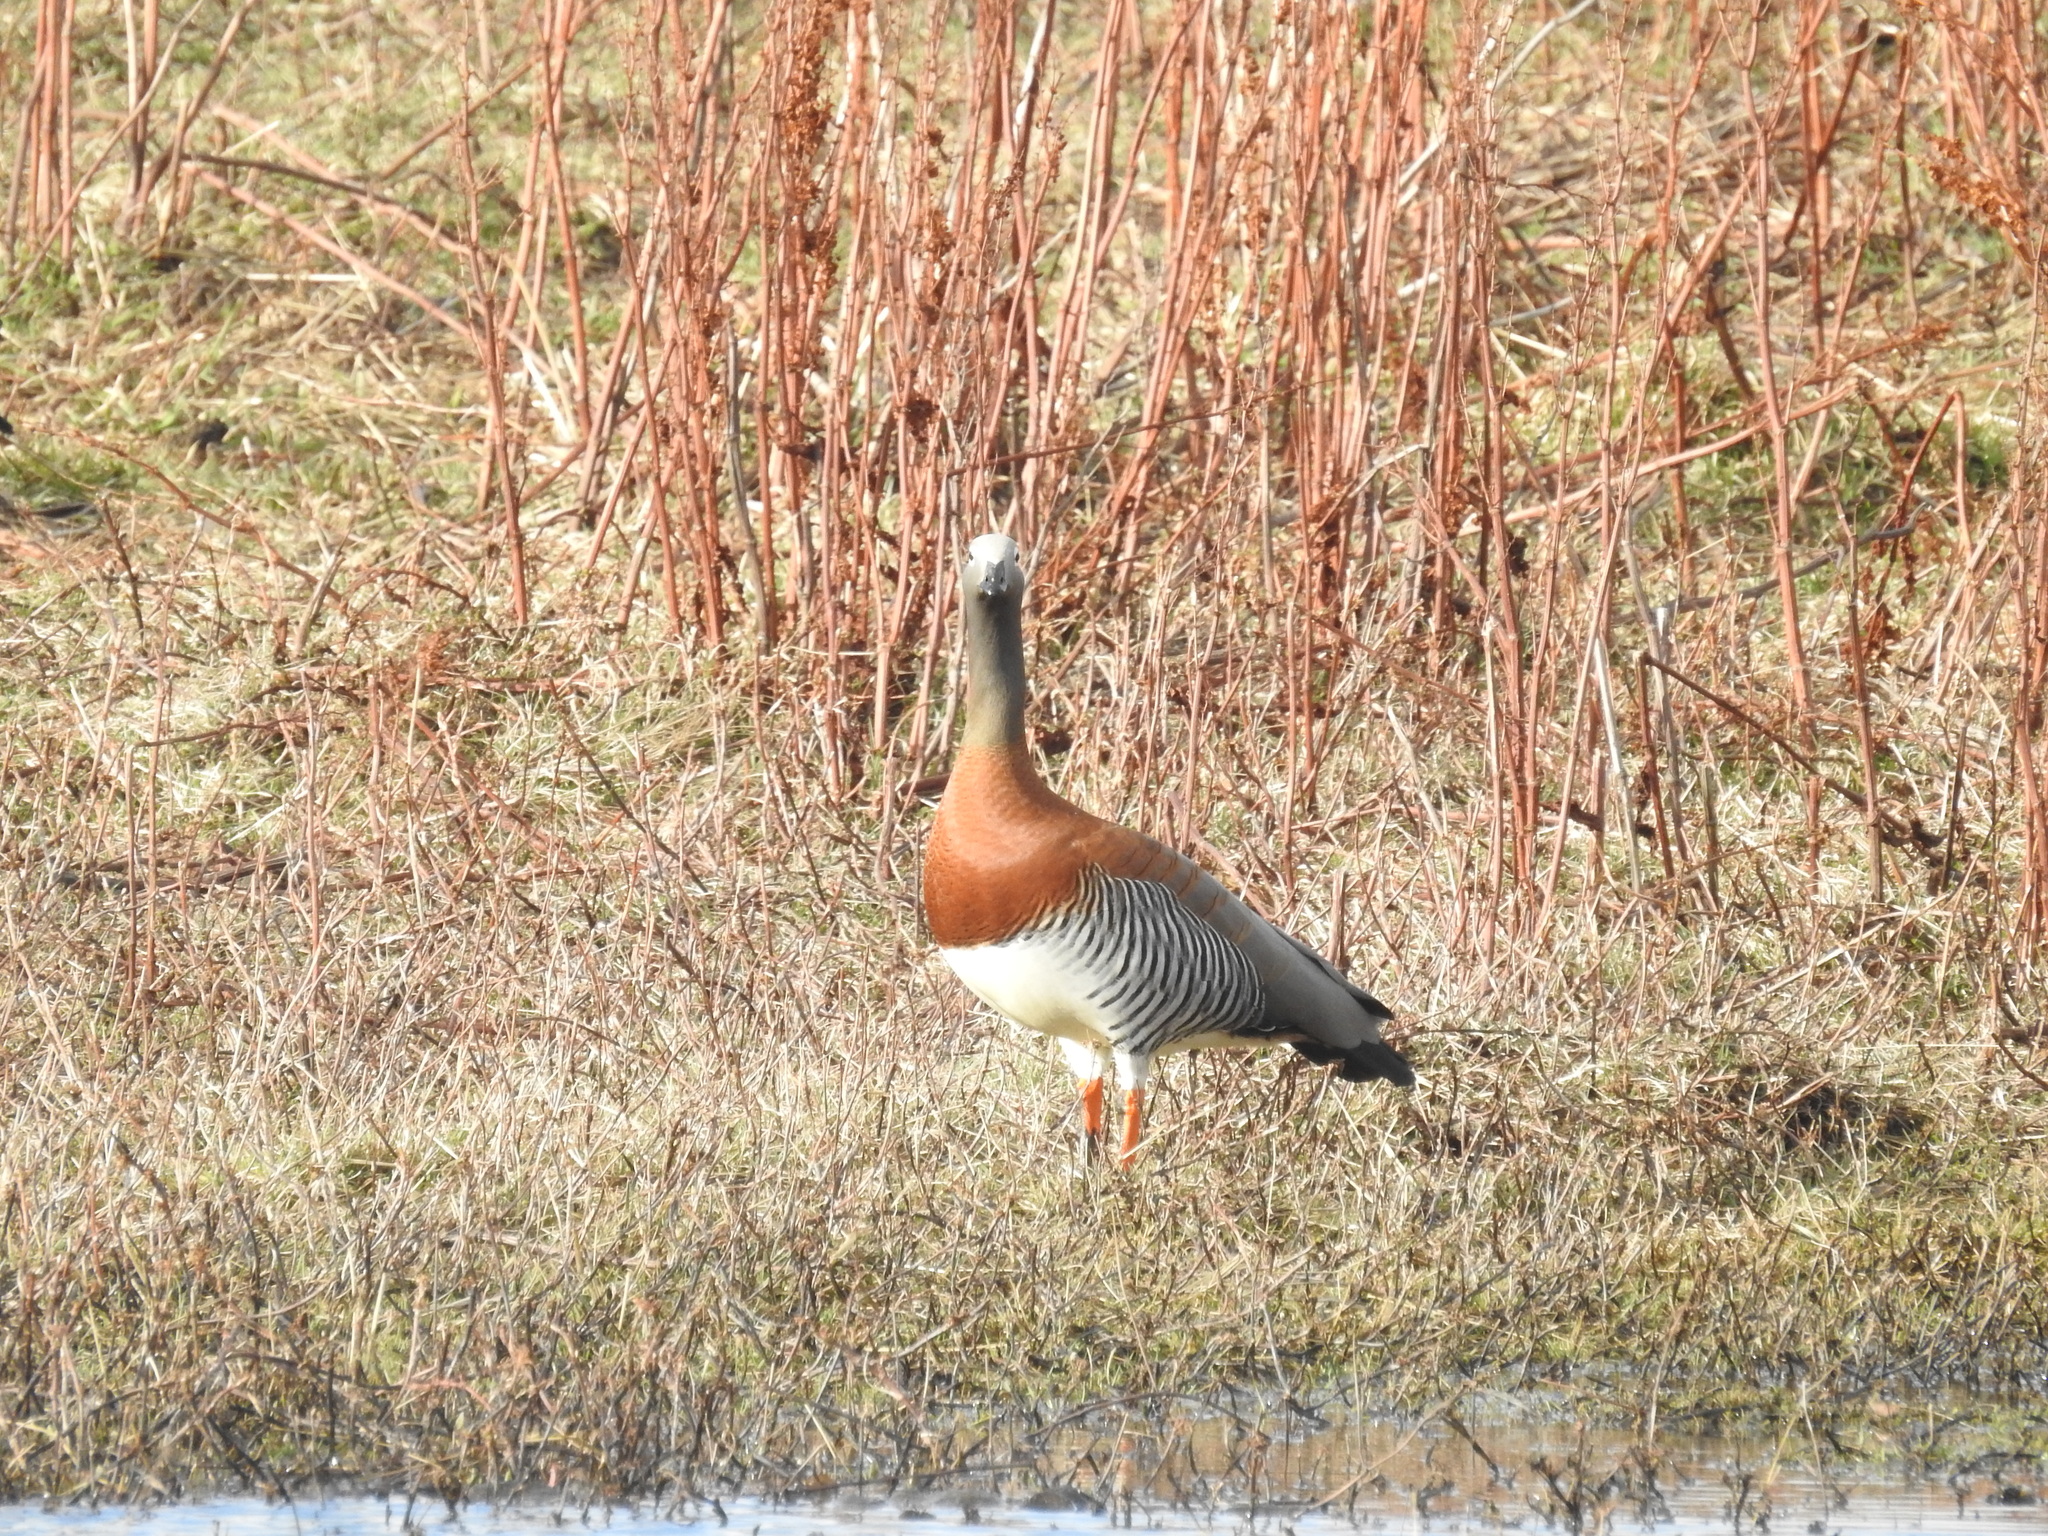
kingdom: Animalia
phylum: Chordata
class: Aves
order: Anseriformes
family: Anatidae
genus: Chloephaga
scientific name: Chloephaga poliocephala
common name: Ashy-headed goose
